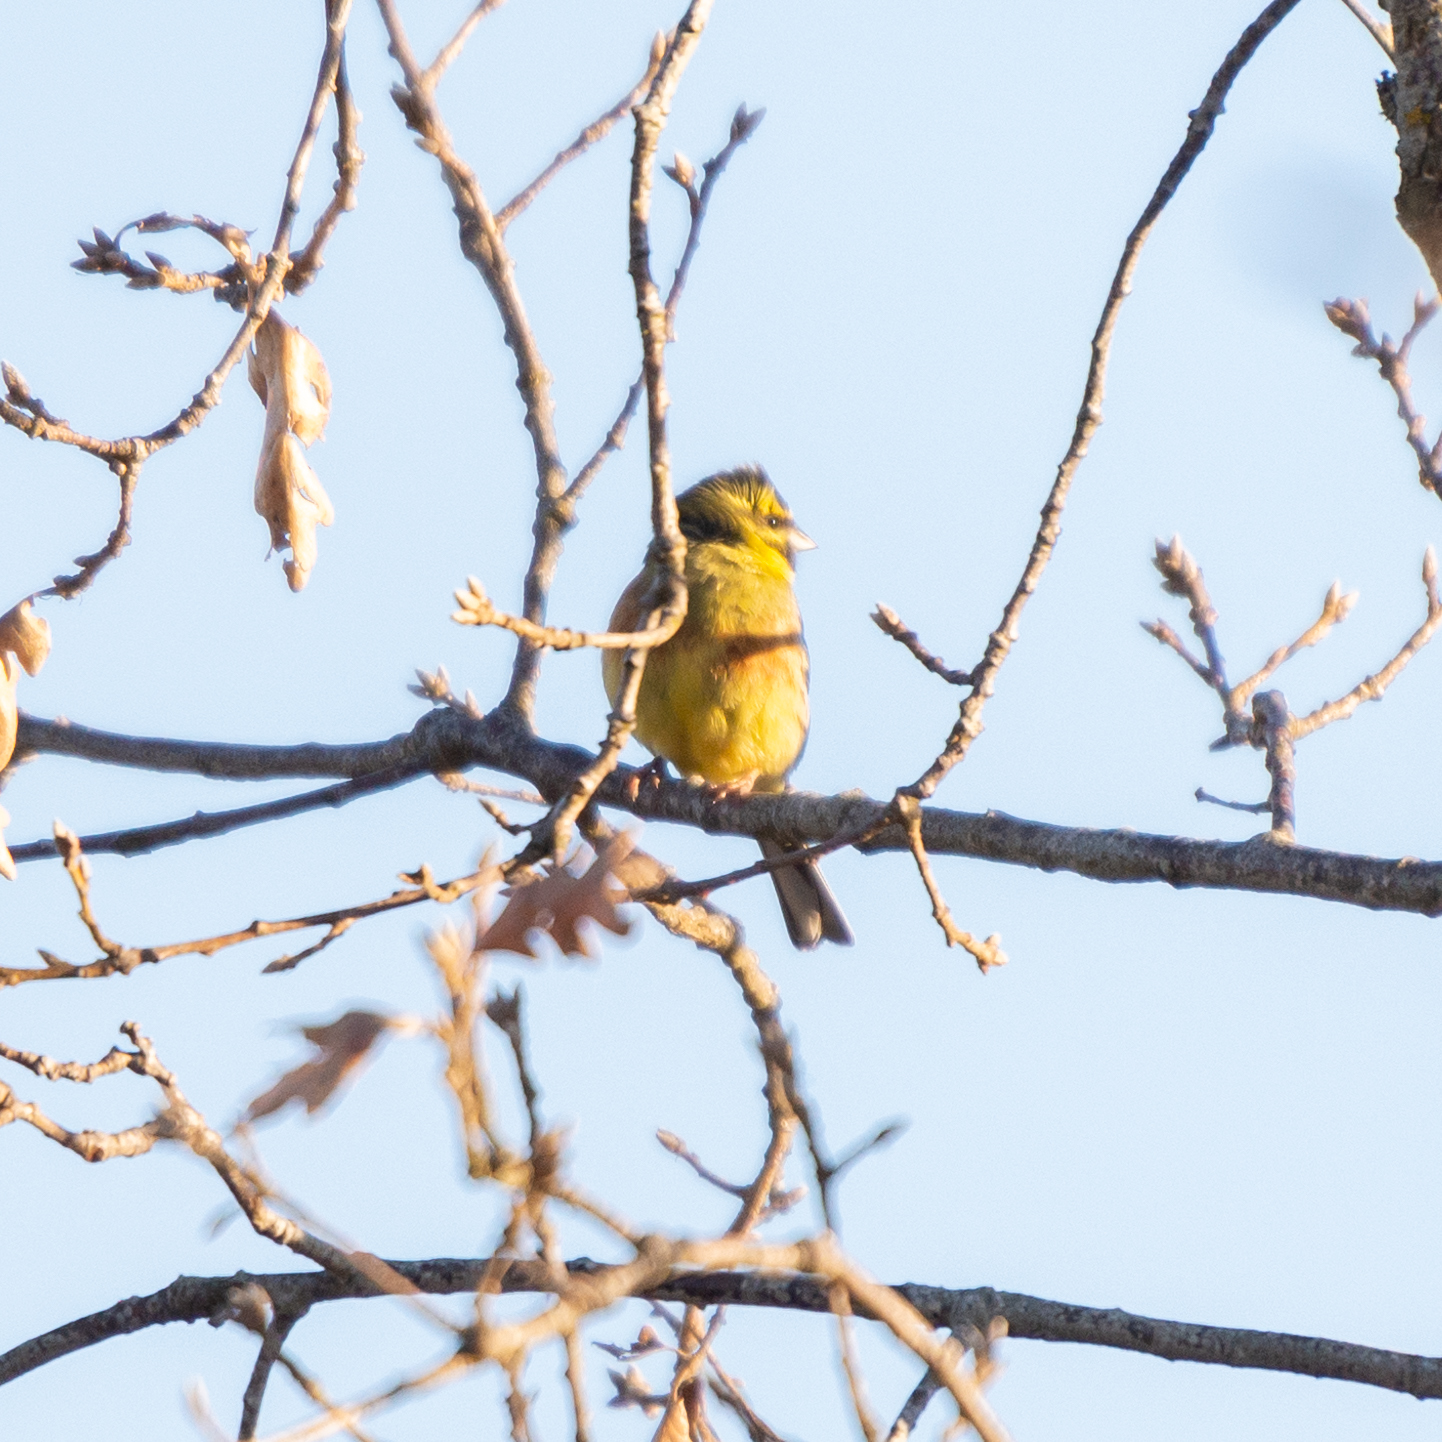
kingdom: Animalia
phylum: Chordata
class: Aves
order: Passeriformes
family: Emberizidae
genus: Emberiza
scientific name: Emberiza cirlus
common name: Cirl bunting
